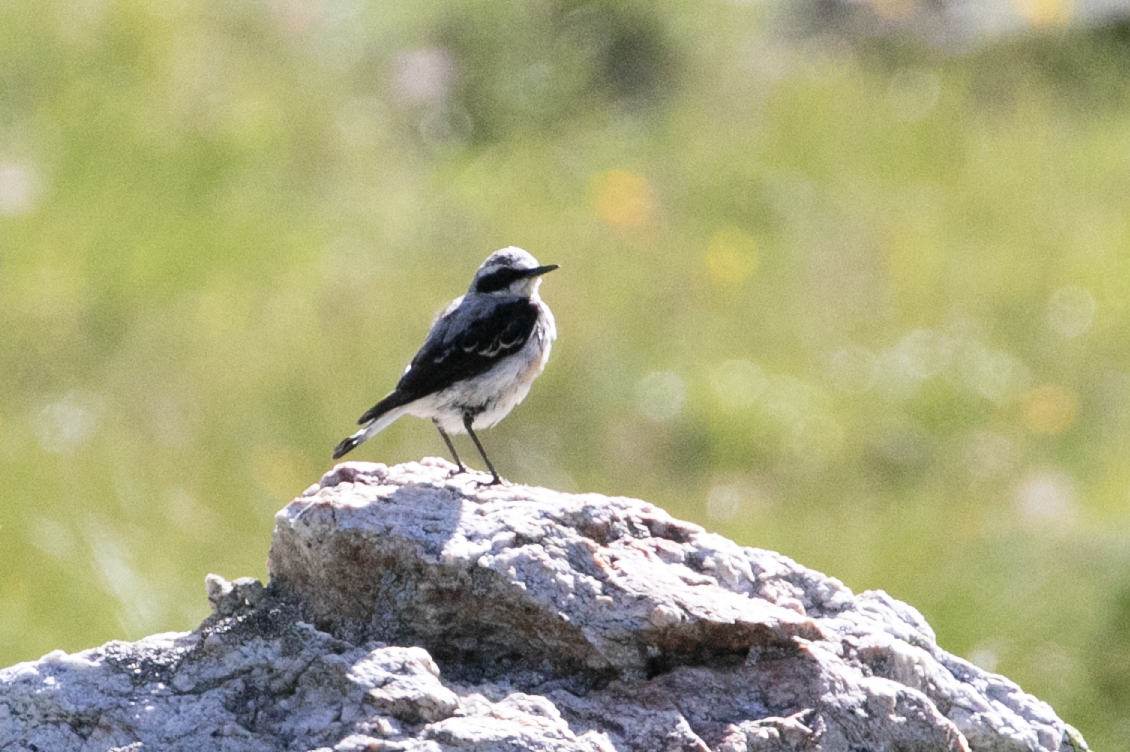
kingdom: Animalia
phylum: Chordata
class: Aves
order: Passeriformes
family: Muscicapidae
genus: Oenanthe
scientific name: Oenanthe oenanthe
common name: Northern wheatear
